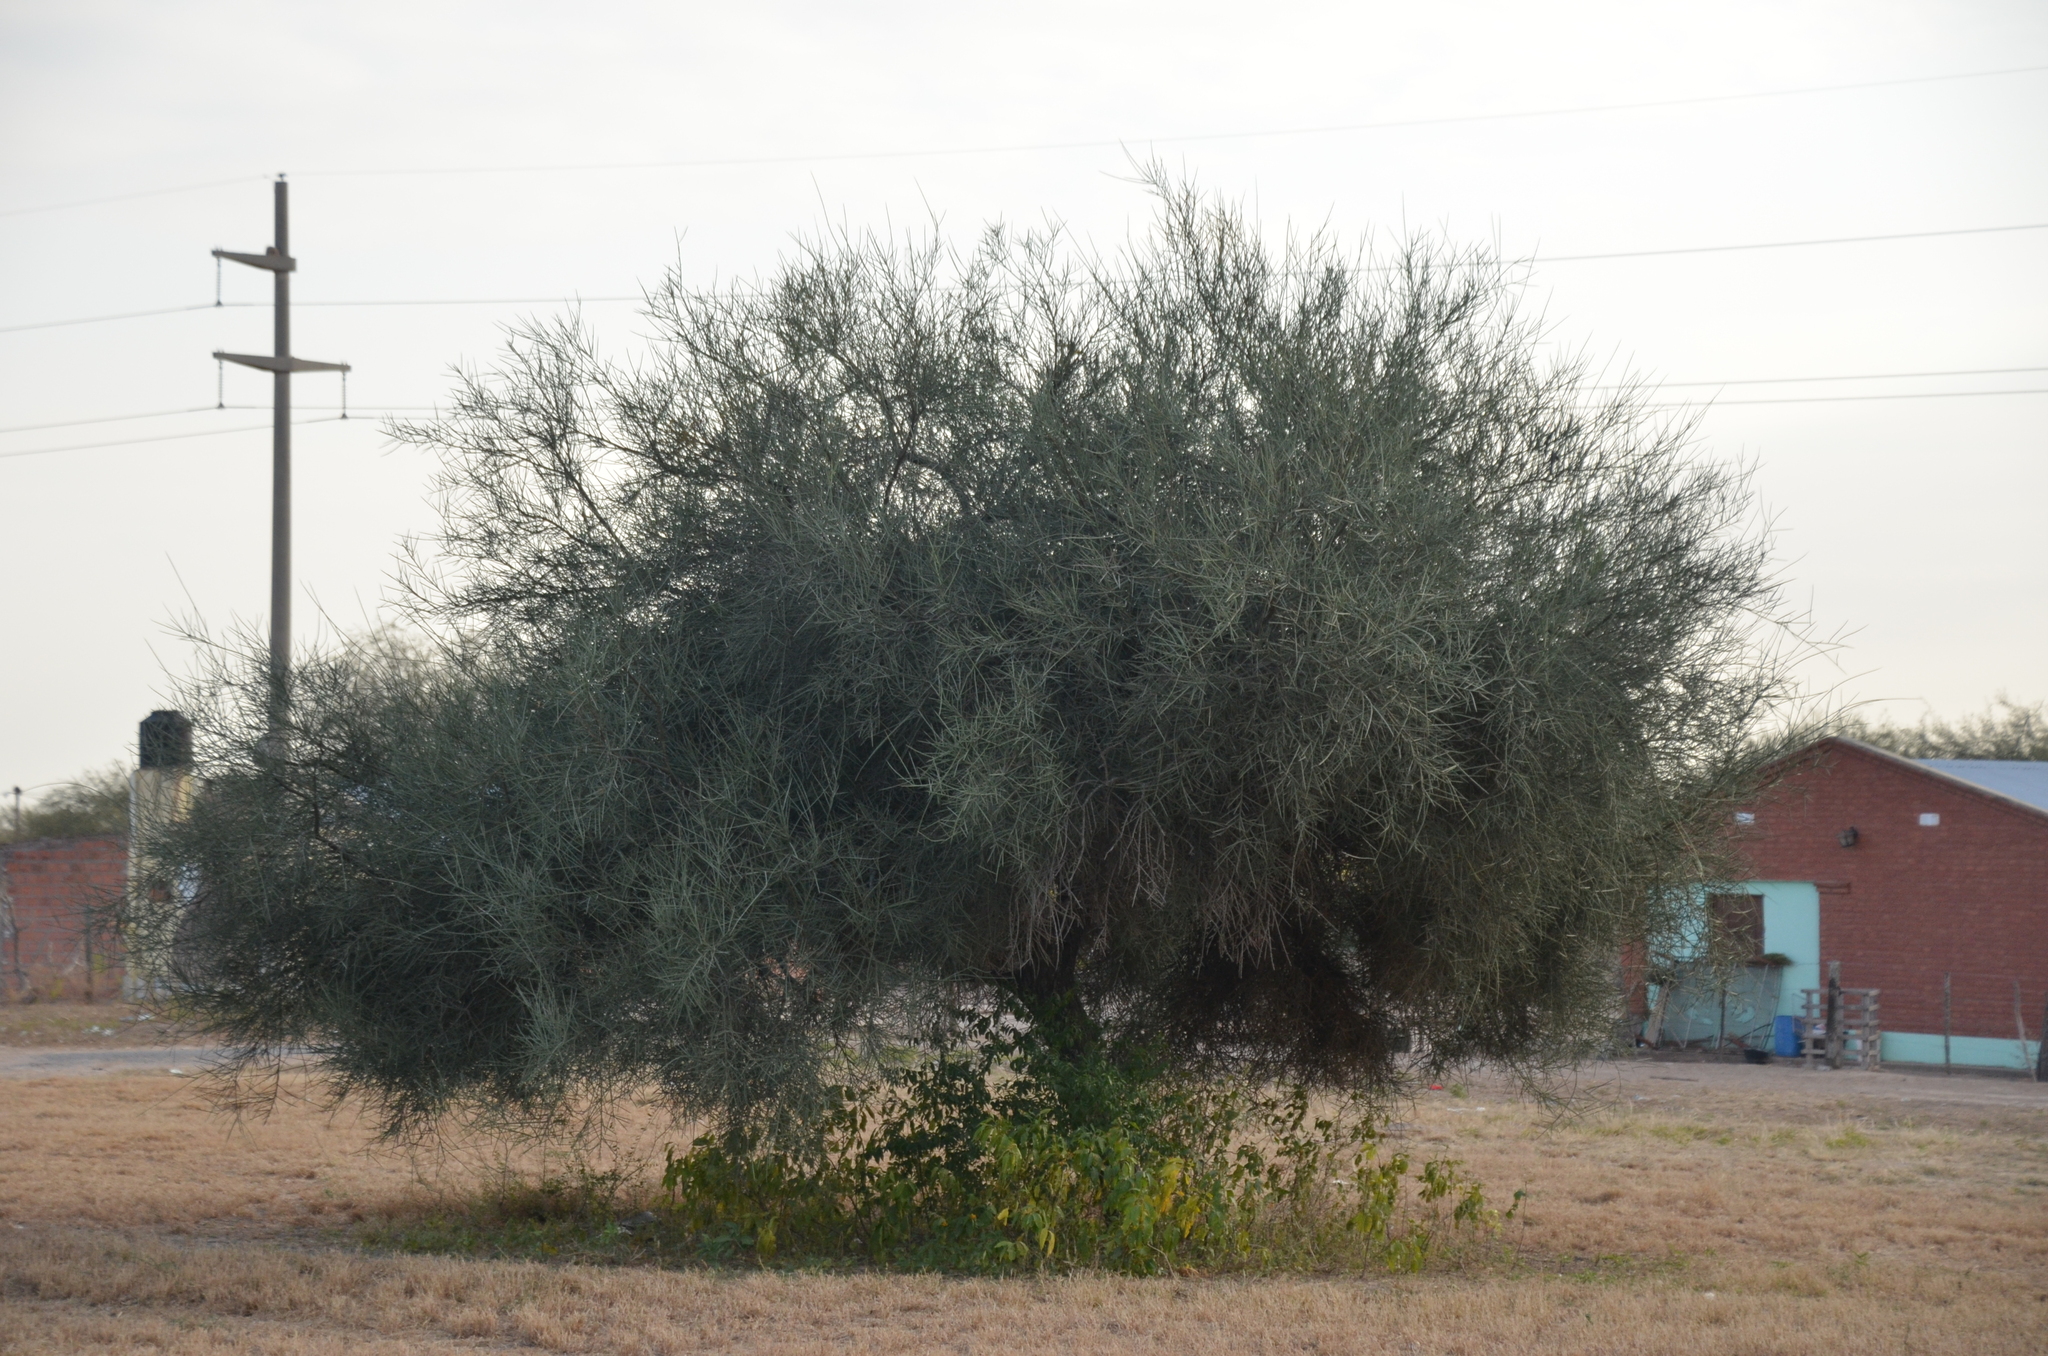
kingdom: Plantae
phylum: Tracheophyta
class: Magnoliopsida
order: Fabales
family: Fabaceae
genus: Prosopis
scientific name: Prosopis kuntzei
